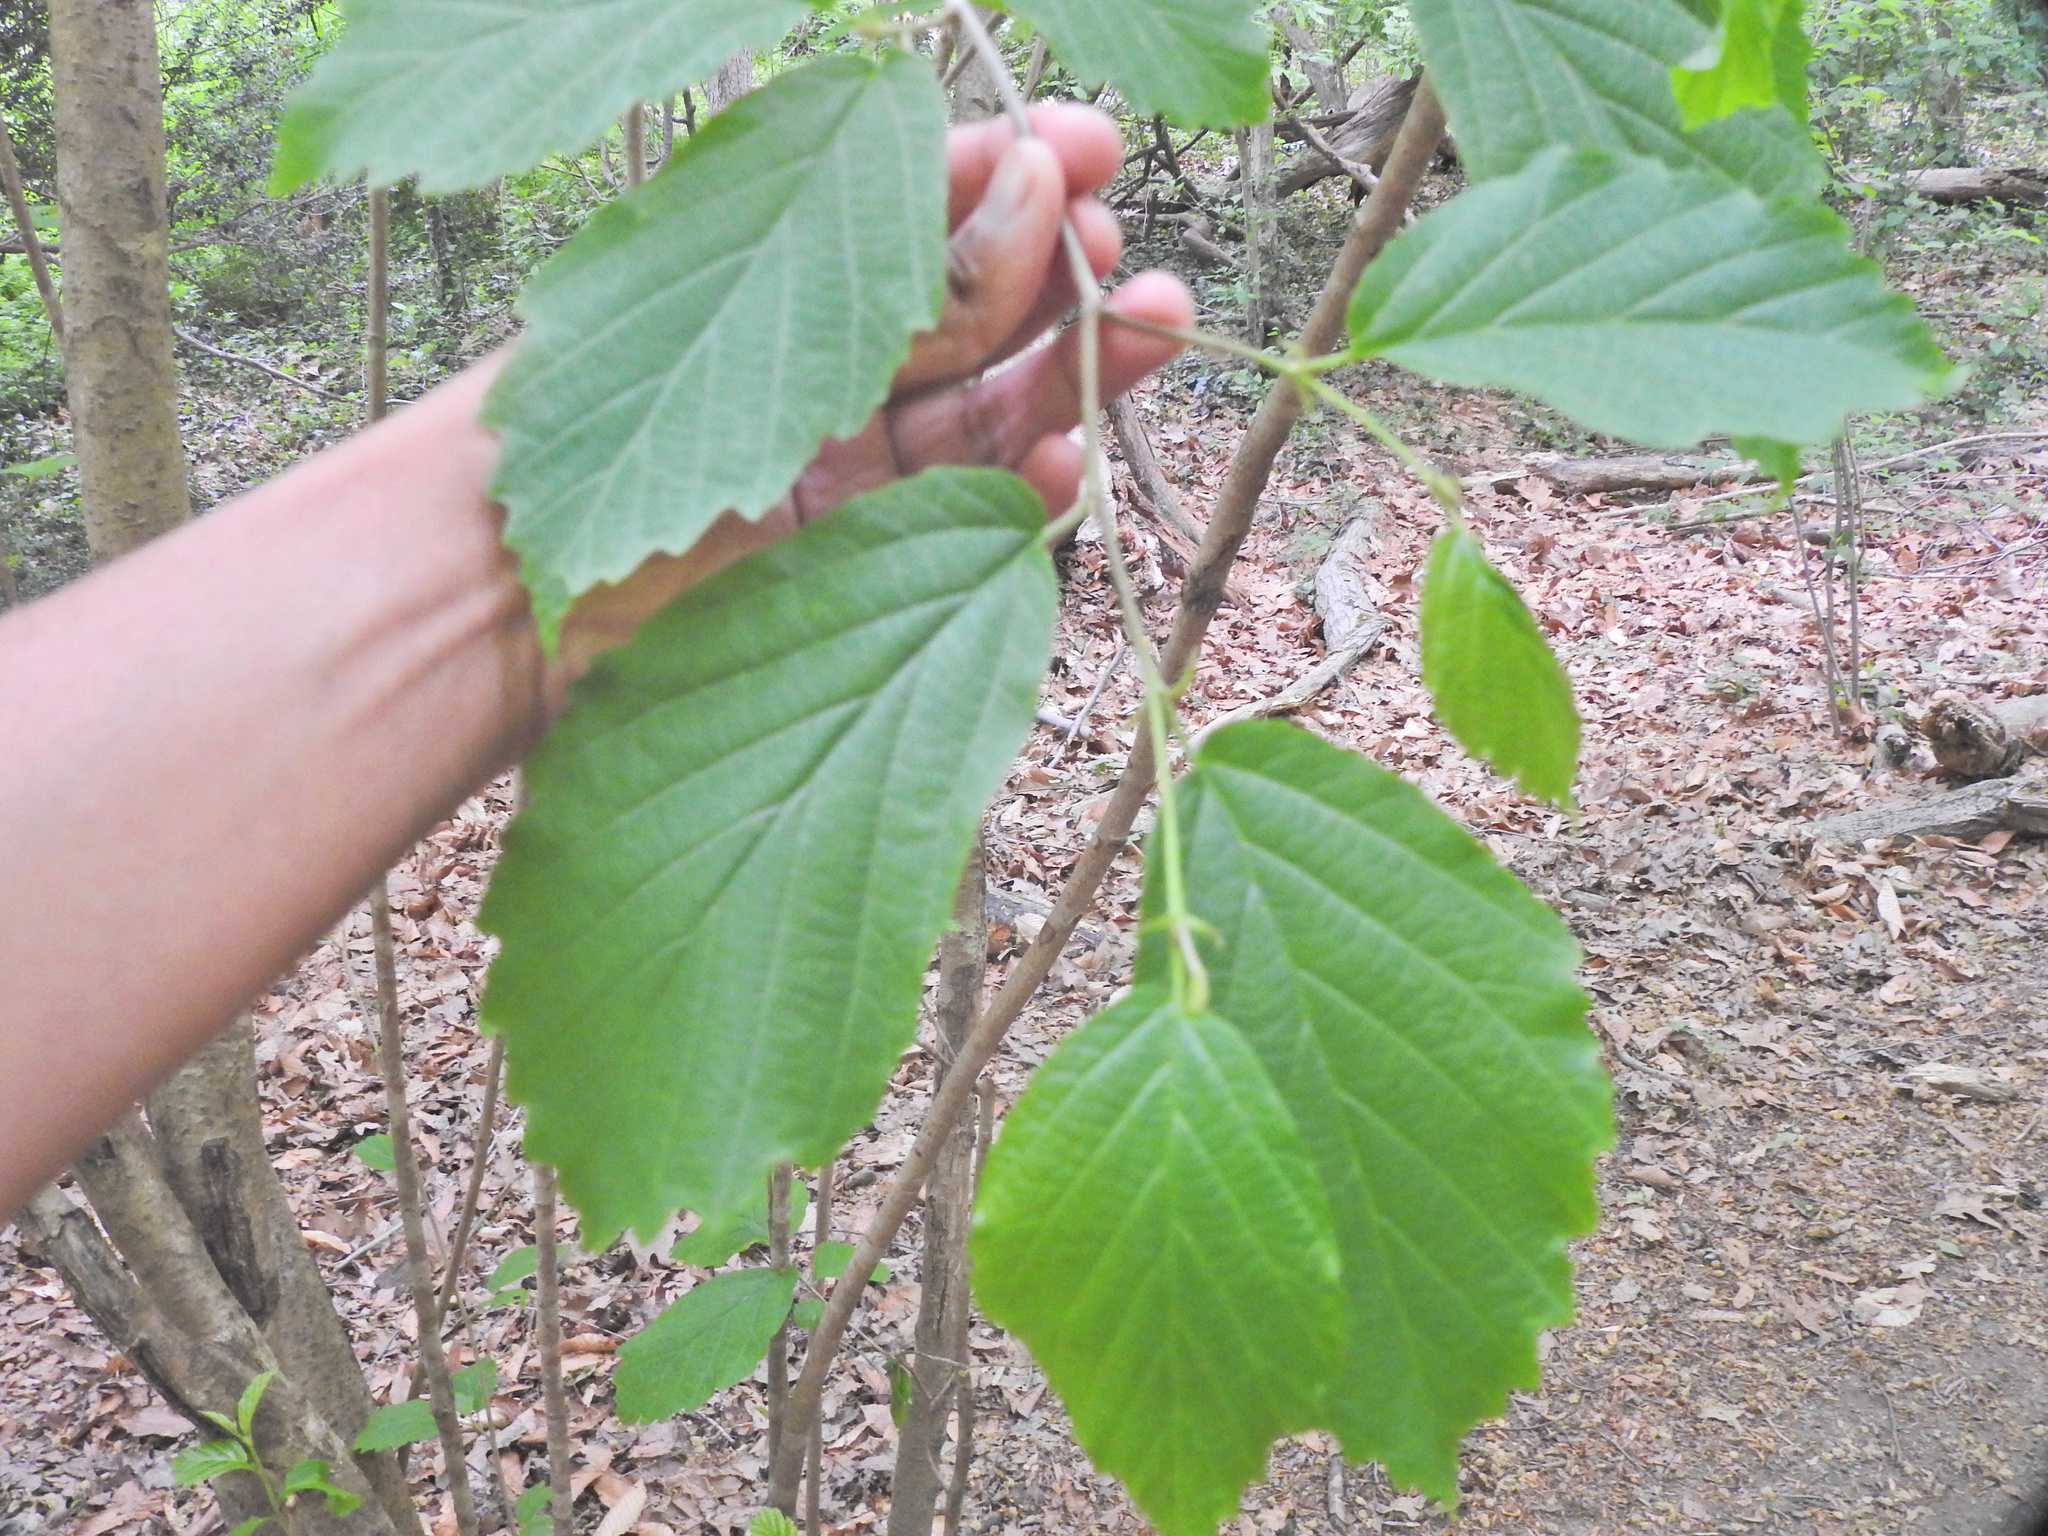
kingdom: Plantae
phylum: Tracheophyta
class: Magnoliopsida
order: Saxifragales
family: Hamamelidaceae
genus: Hamamelis
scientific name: Hamamelis virginiana
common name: Witch-hazel
